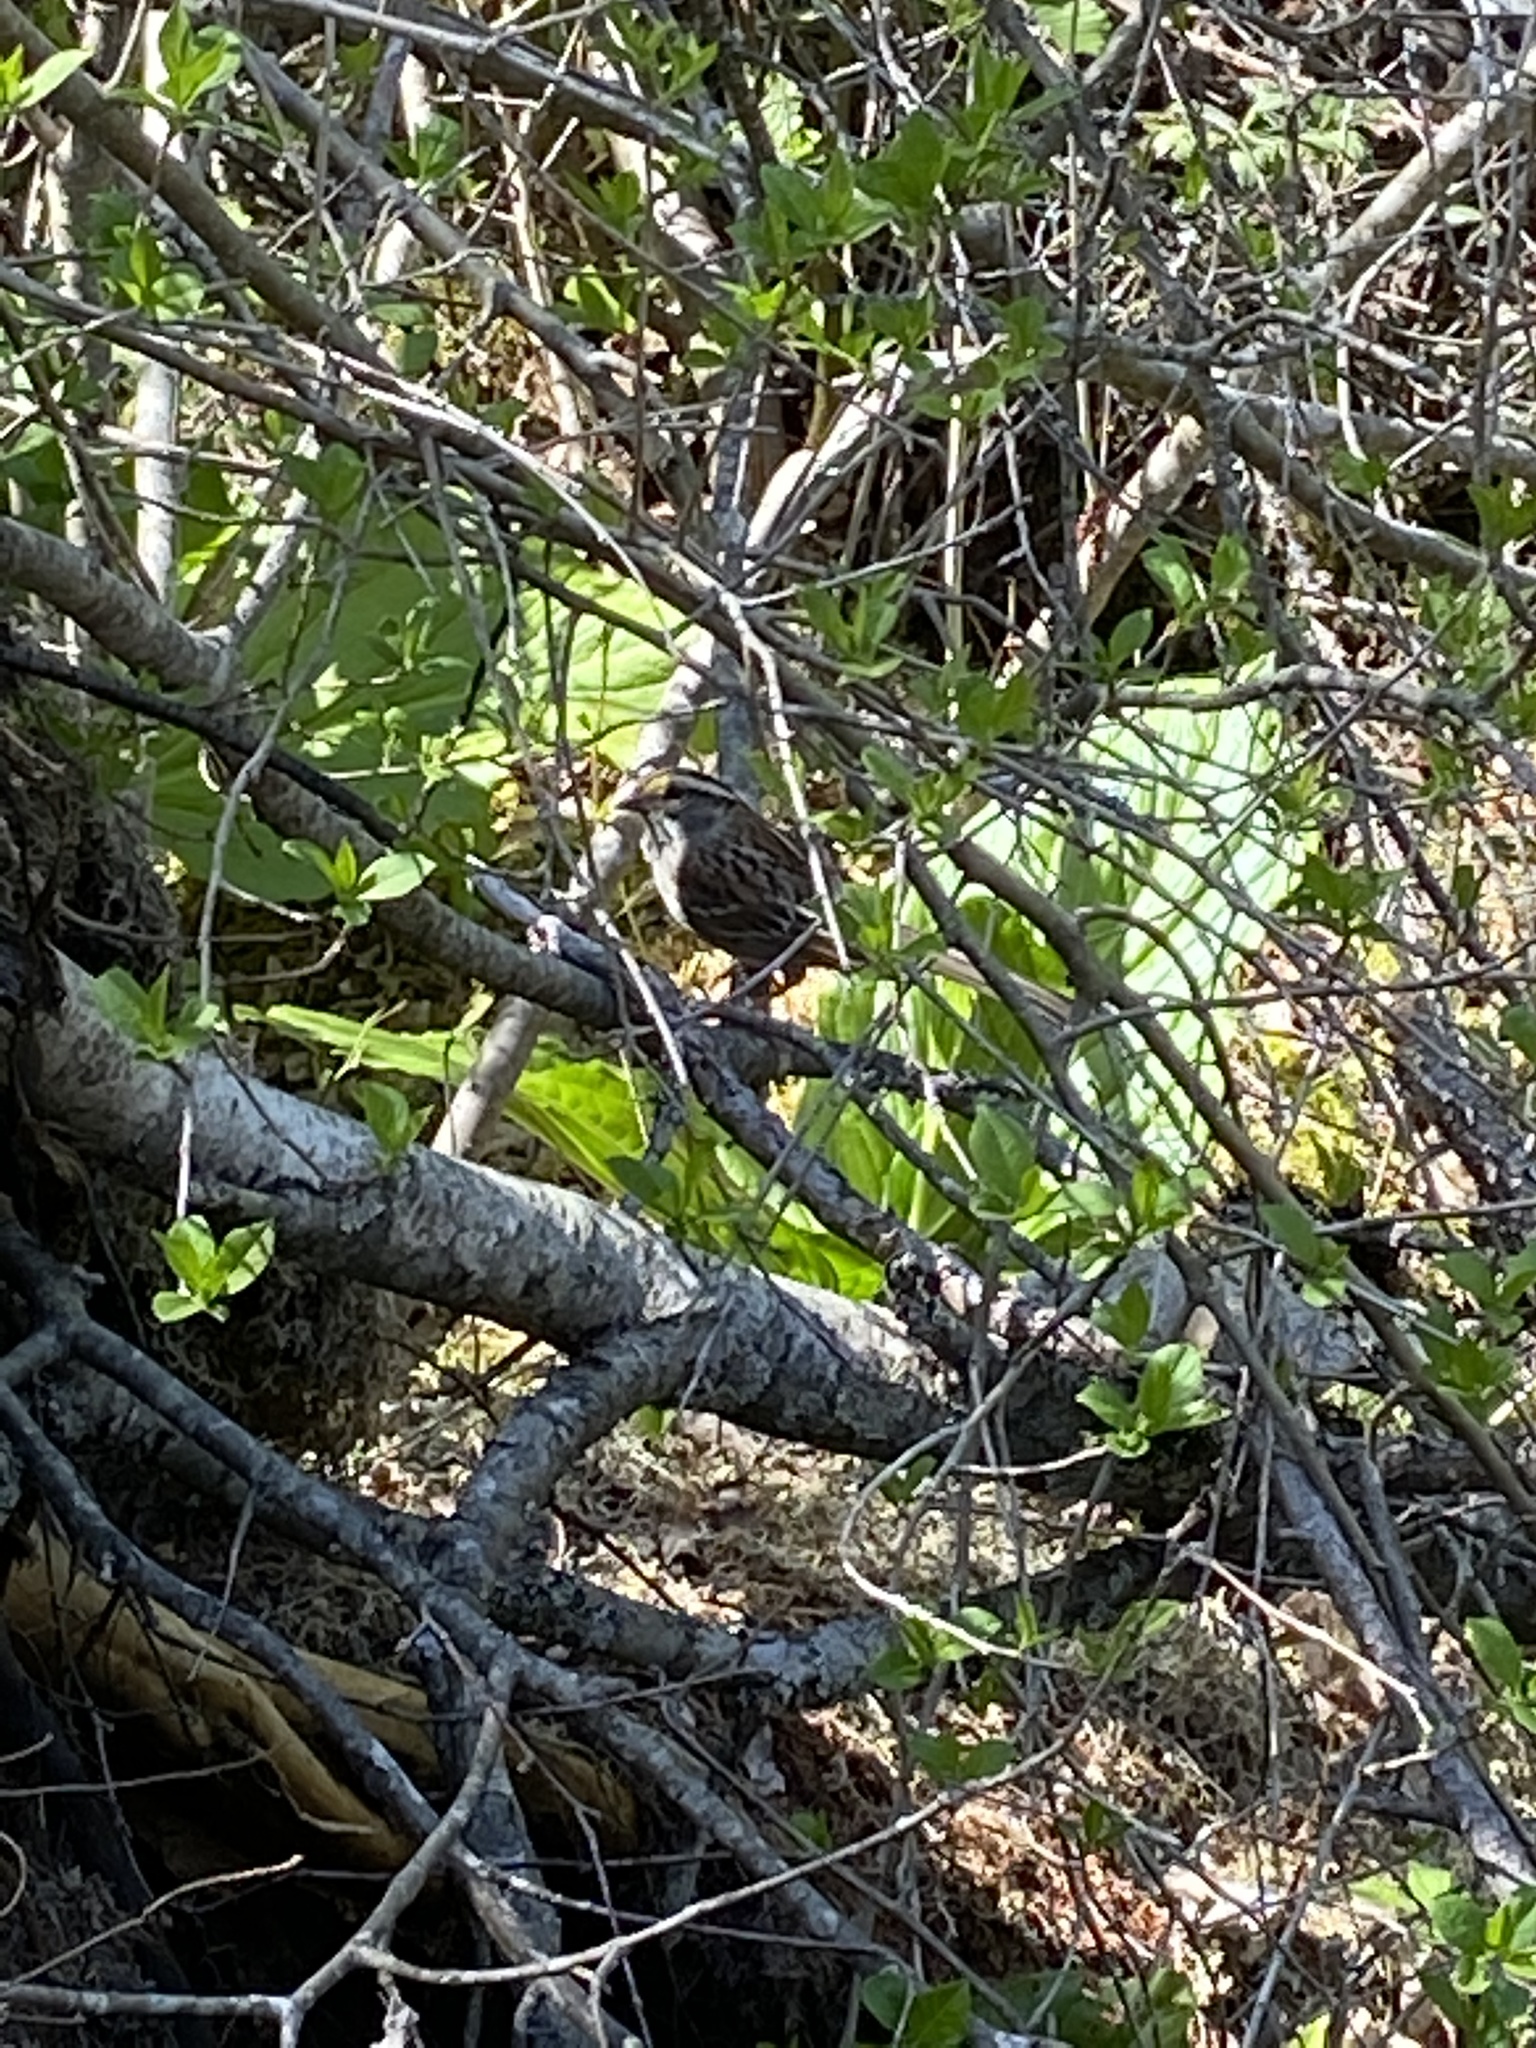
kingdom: Animalia
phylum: Chordata
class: Aves
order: Passeriformes
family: Passerellidae
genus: Zonotrichia
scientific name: Zonotrichia albicollis
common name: White-throated sparrow
